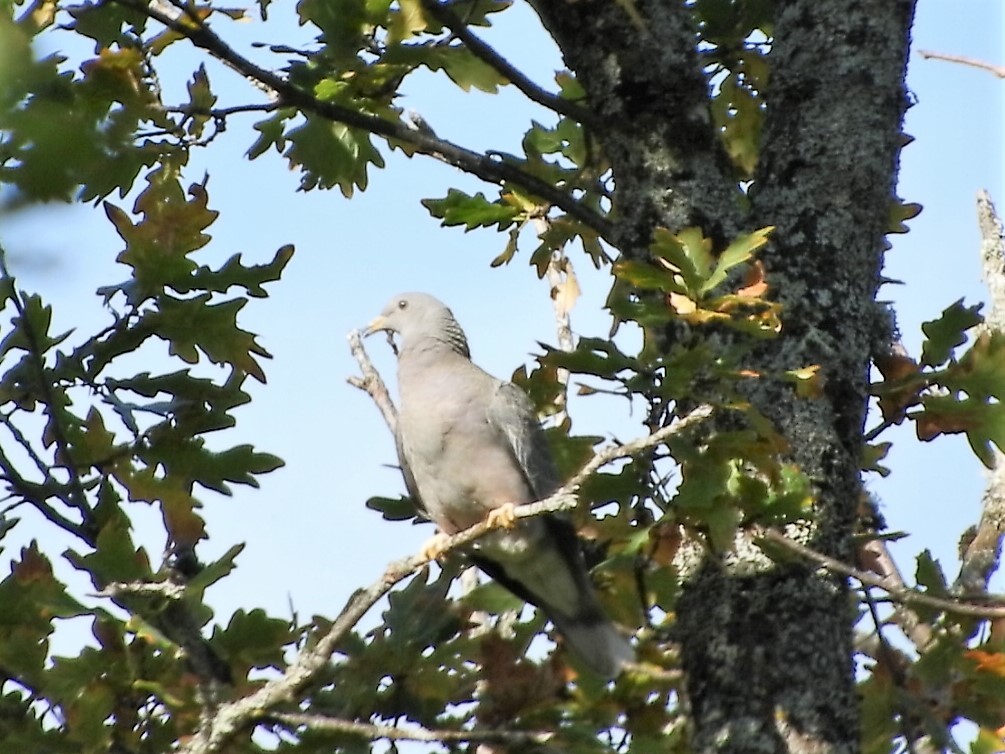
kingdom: Animalia
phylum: Chordata
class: Aves
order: Columbiformes
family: Columbidae
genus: Patagioenas
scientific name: Patagioenas fasciata
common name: Band-tailed pigeon
